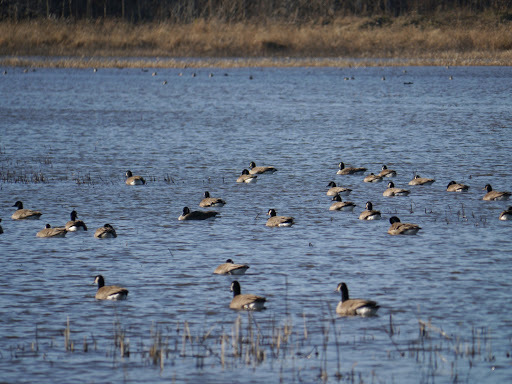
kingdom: Animalia
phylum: Chordata
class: Aves
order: Anseriformes
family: Anatidae
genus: Branta
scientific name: Branta canadensis
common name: Canada goose
